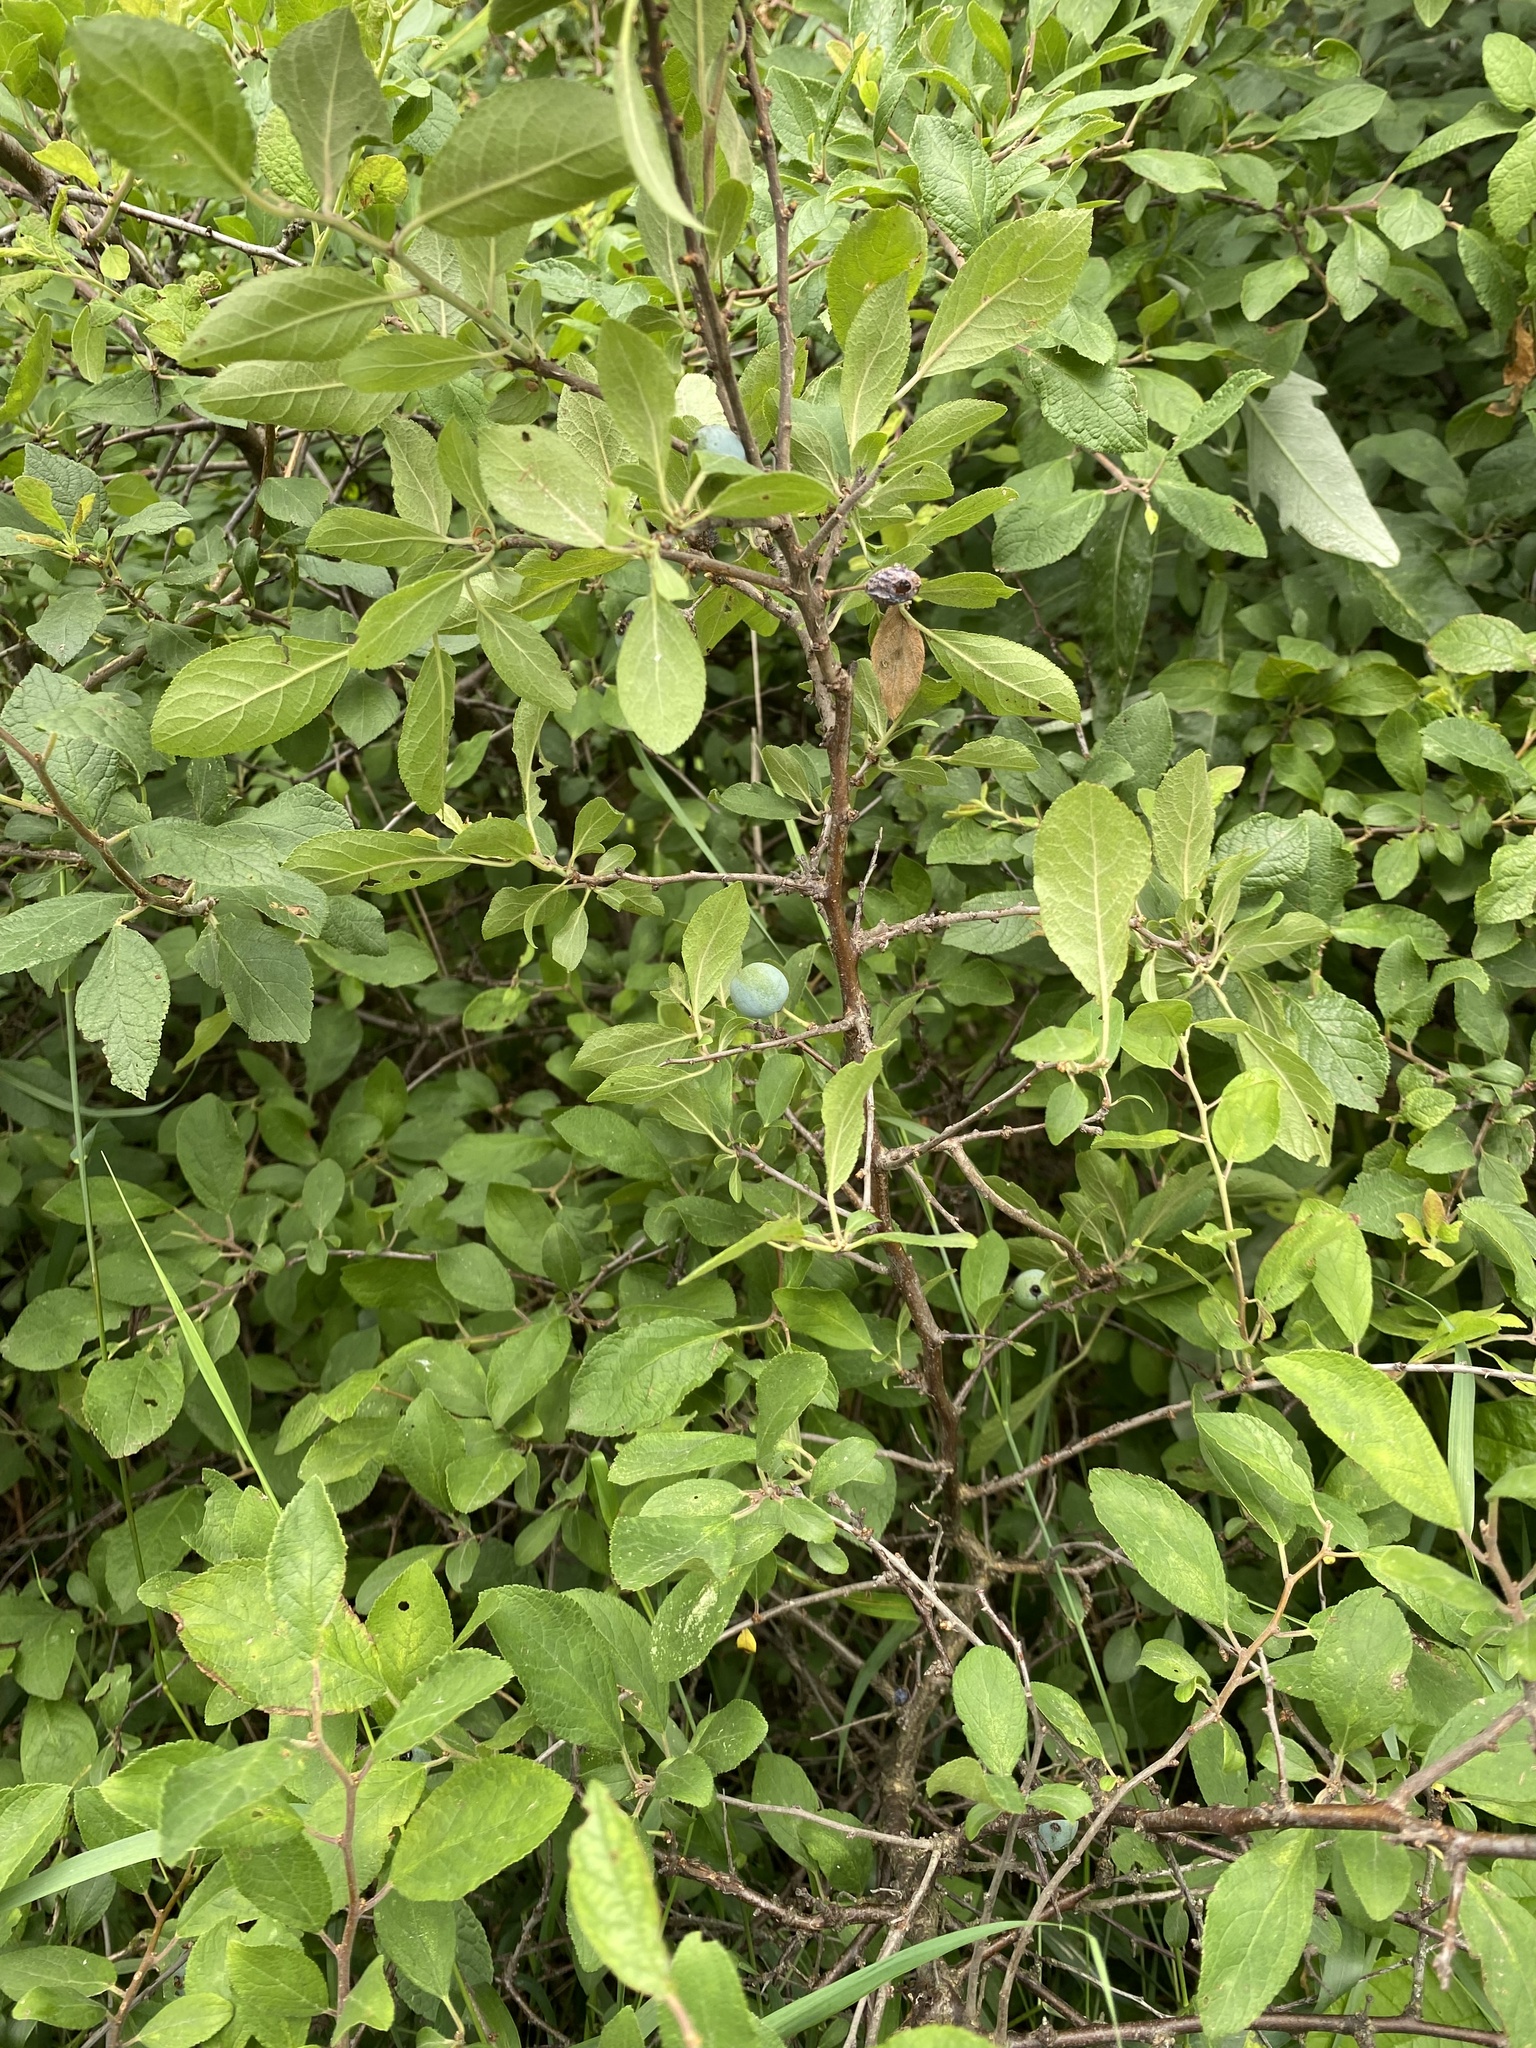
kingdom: Plantae
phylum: Tracheophyta
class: Magnoliopsida
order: Rosales
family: Rosaceae
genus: Prunus
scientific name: Prunus spinosa
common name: Blackthorn
